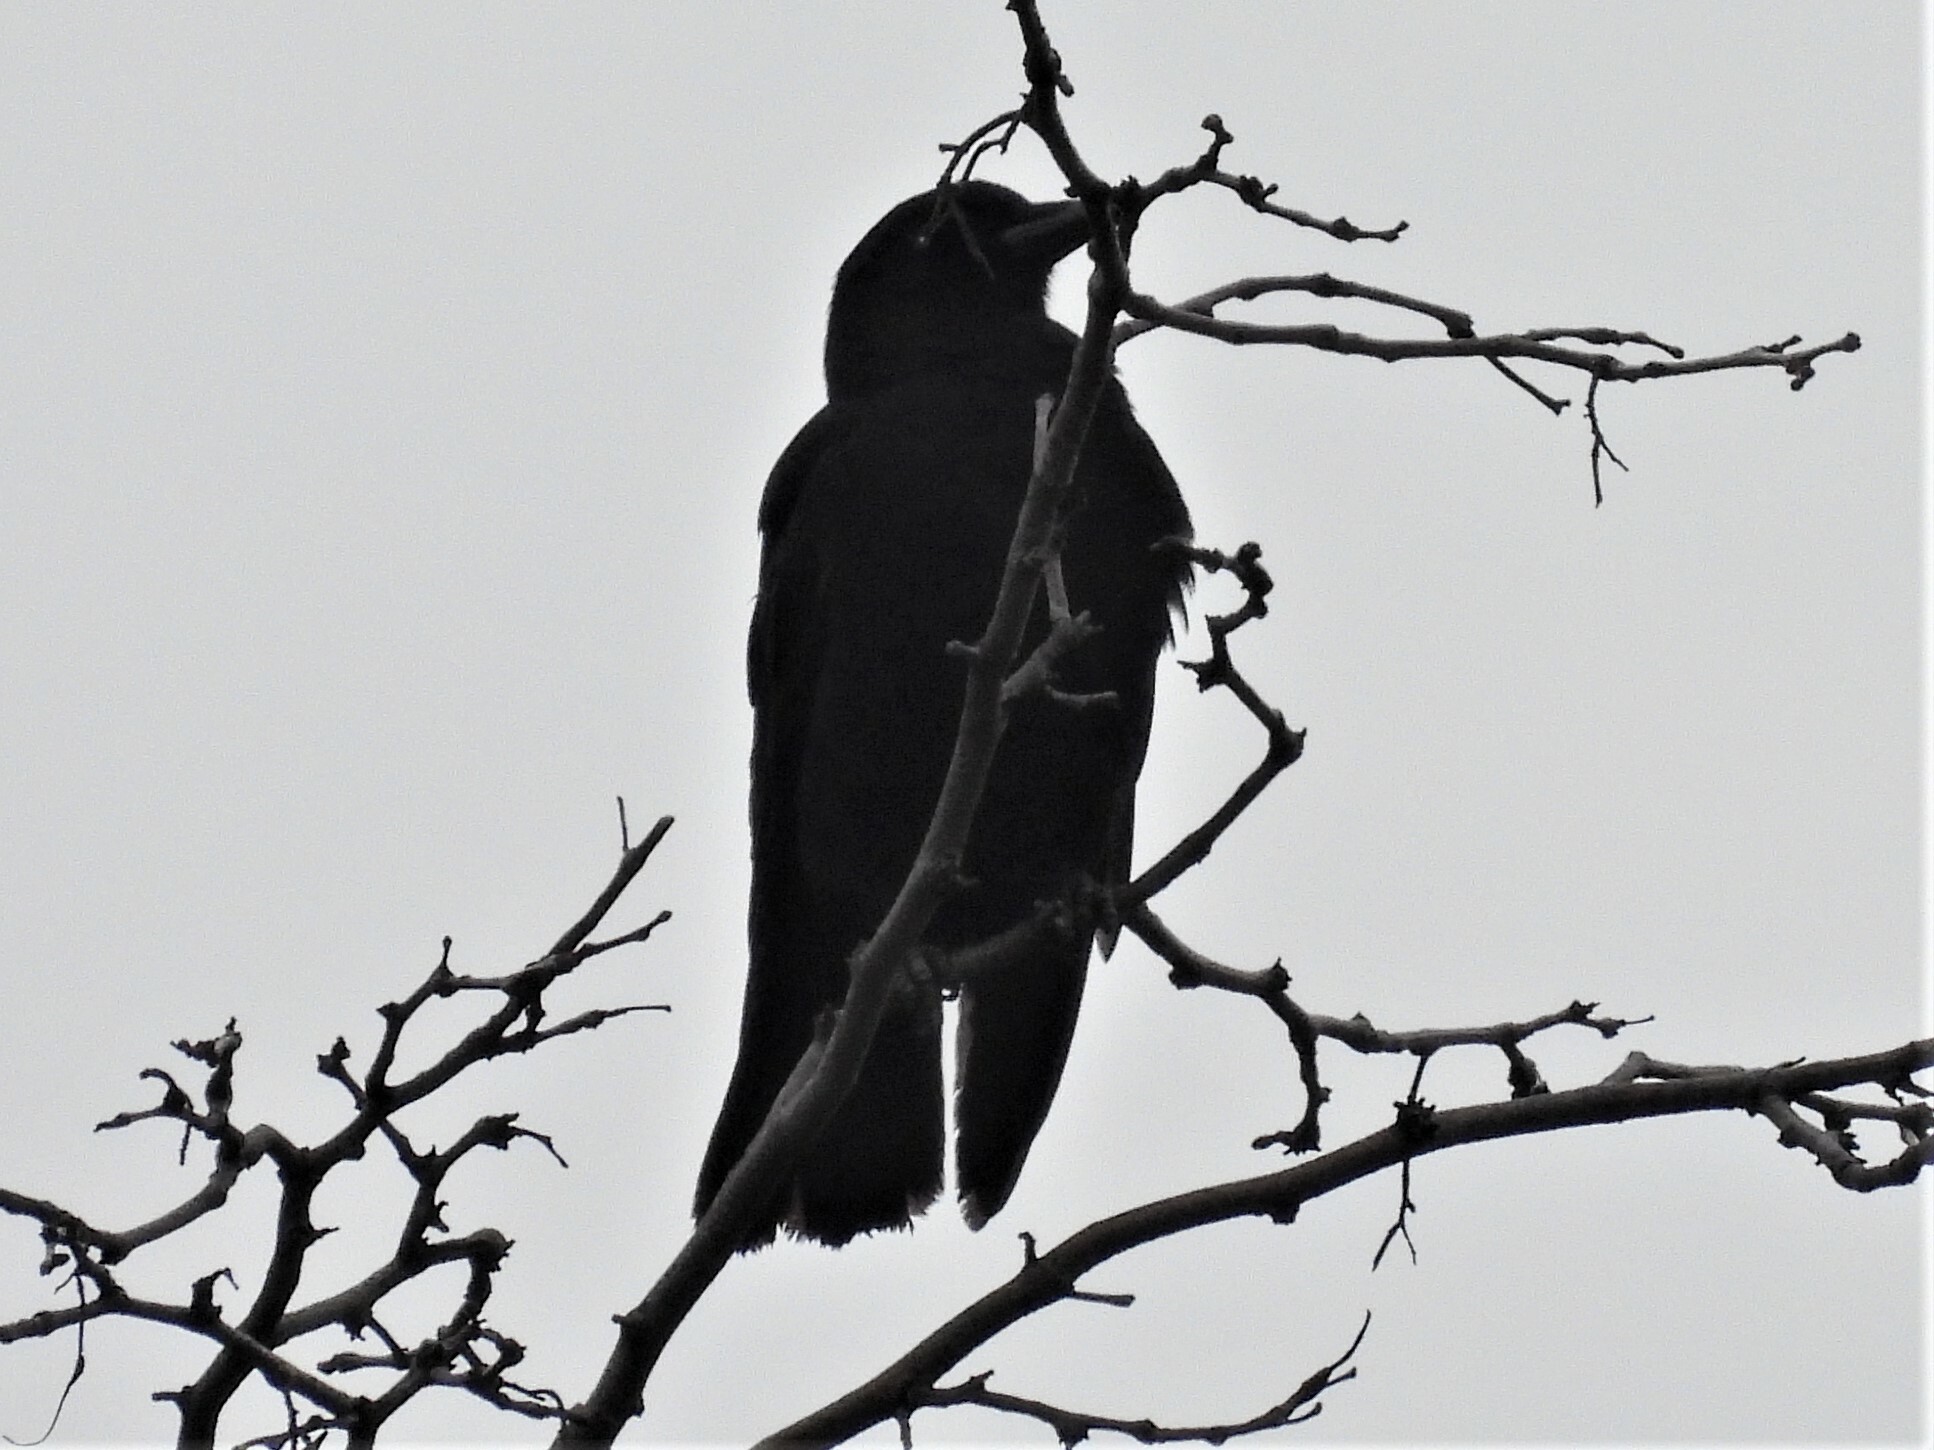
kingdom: Animalia
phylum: Chordata
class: Aves
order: Passeriformes
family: Corvidae
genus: Corvus
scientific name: Corvus brachyrhynchos
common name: American crow
